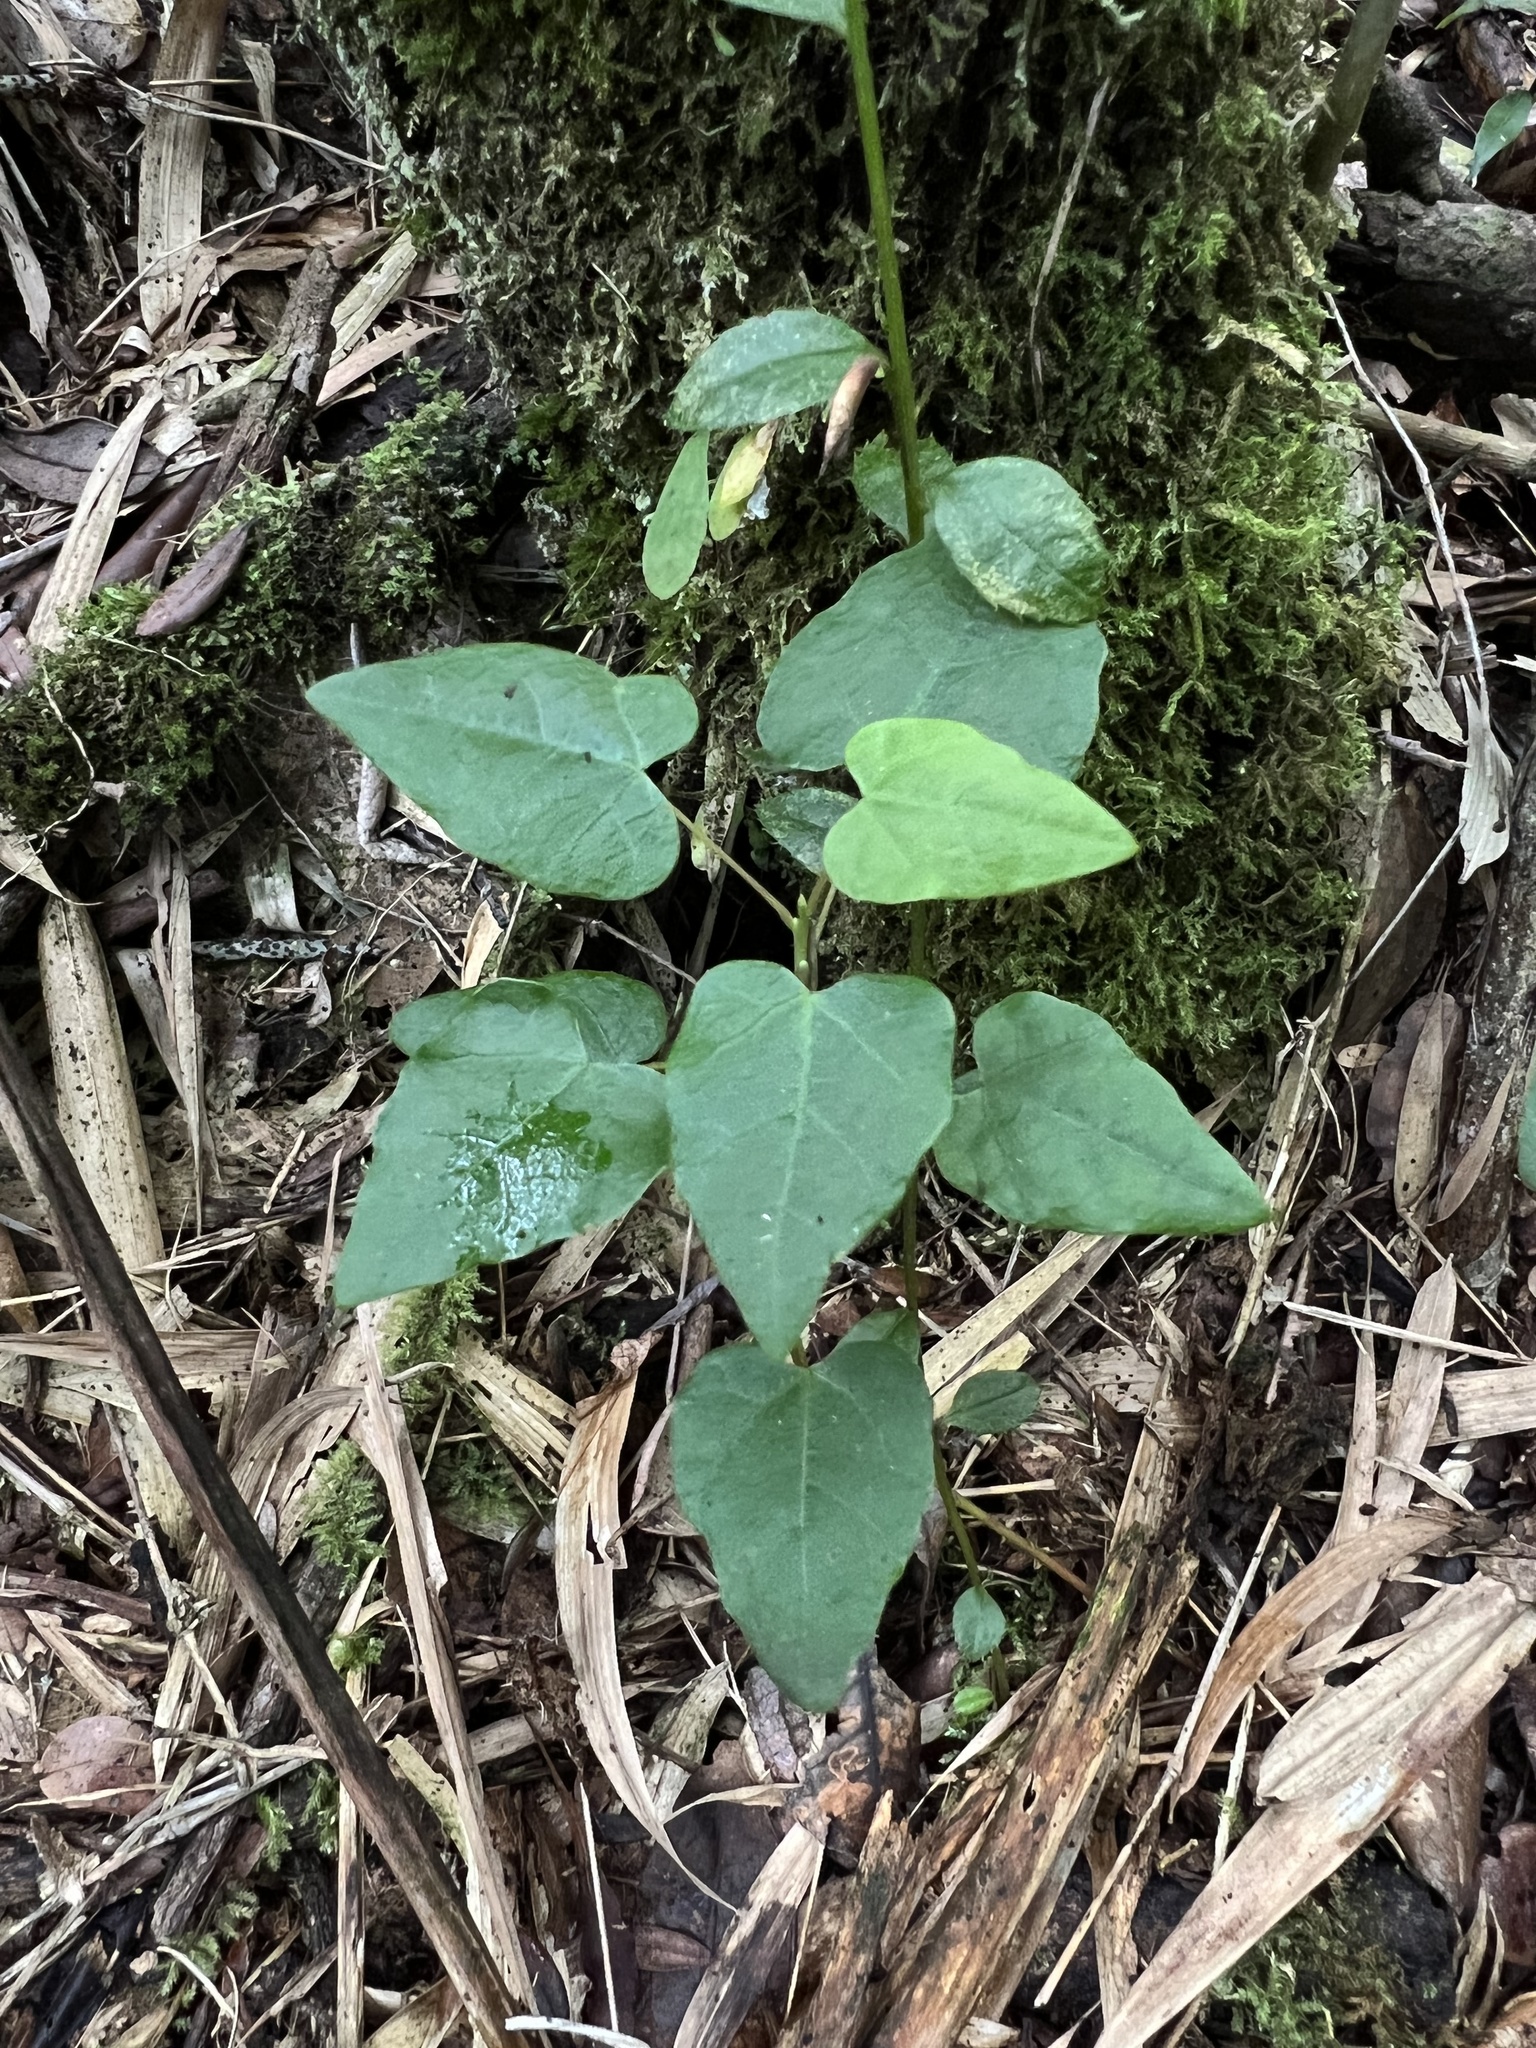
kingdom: Plantae
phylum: Tracheophyta
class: Magnoliopsida
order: Oxalidales
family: Elaeocarpaceae
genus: Vallea
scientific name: Vallea stipularis
